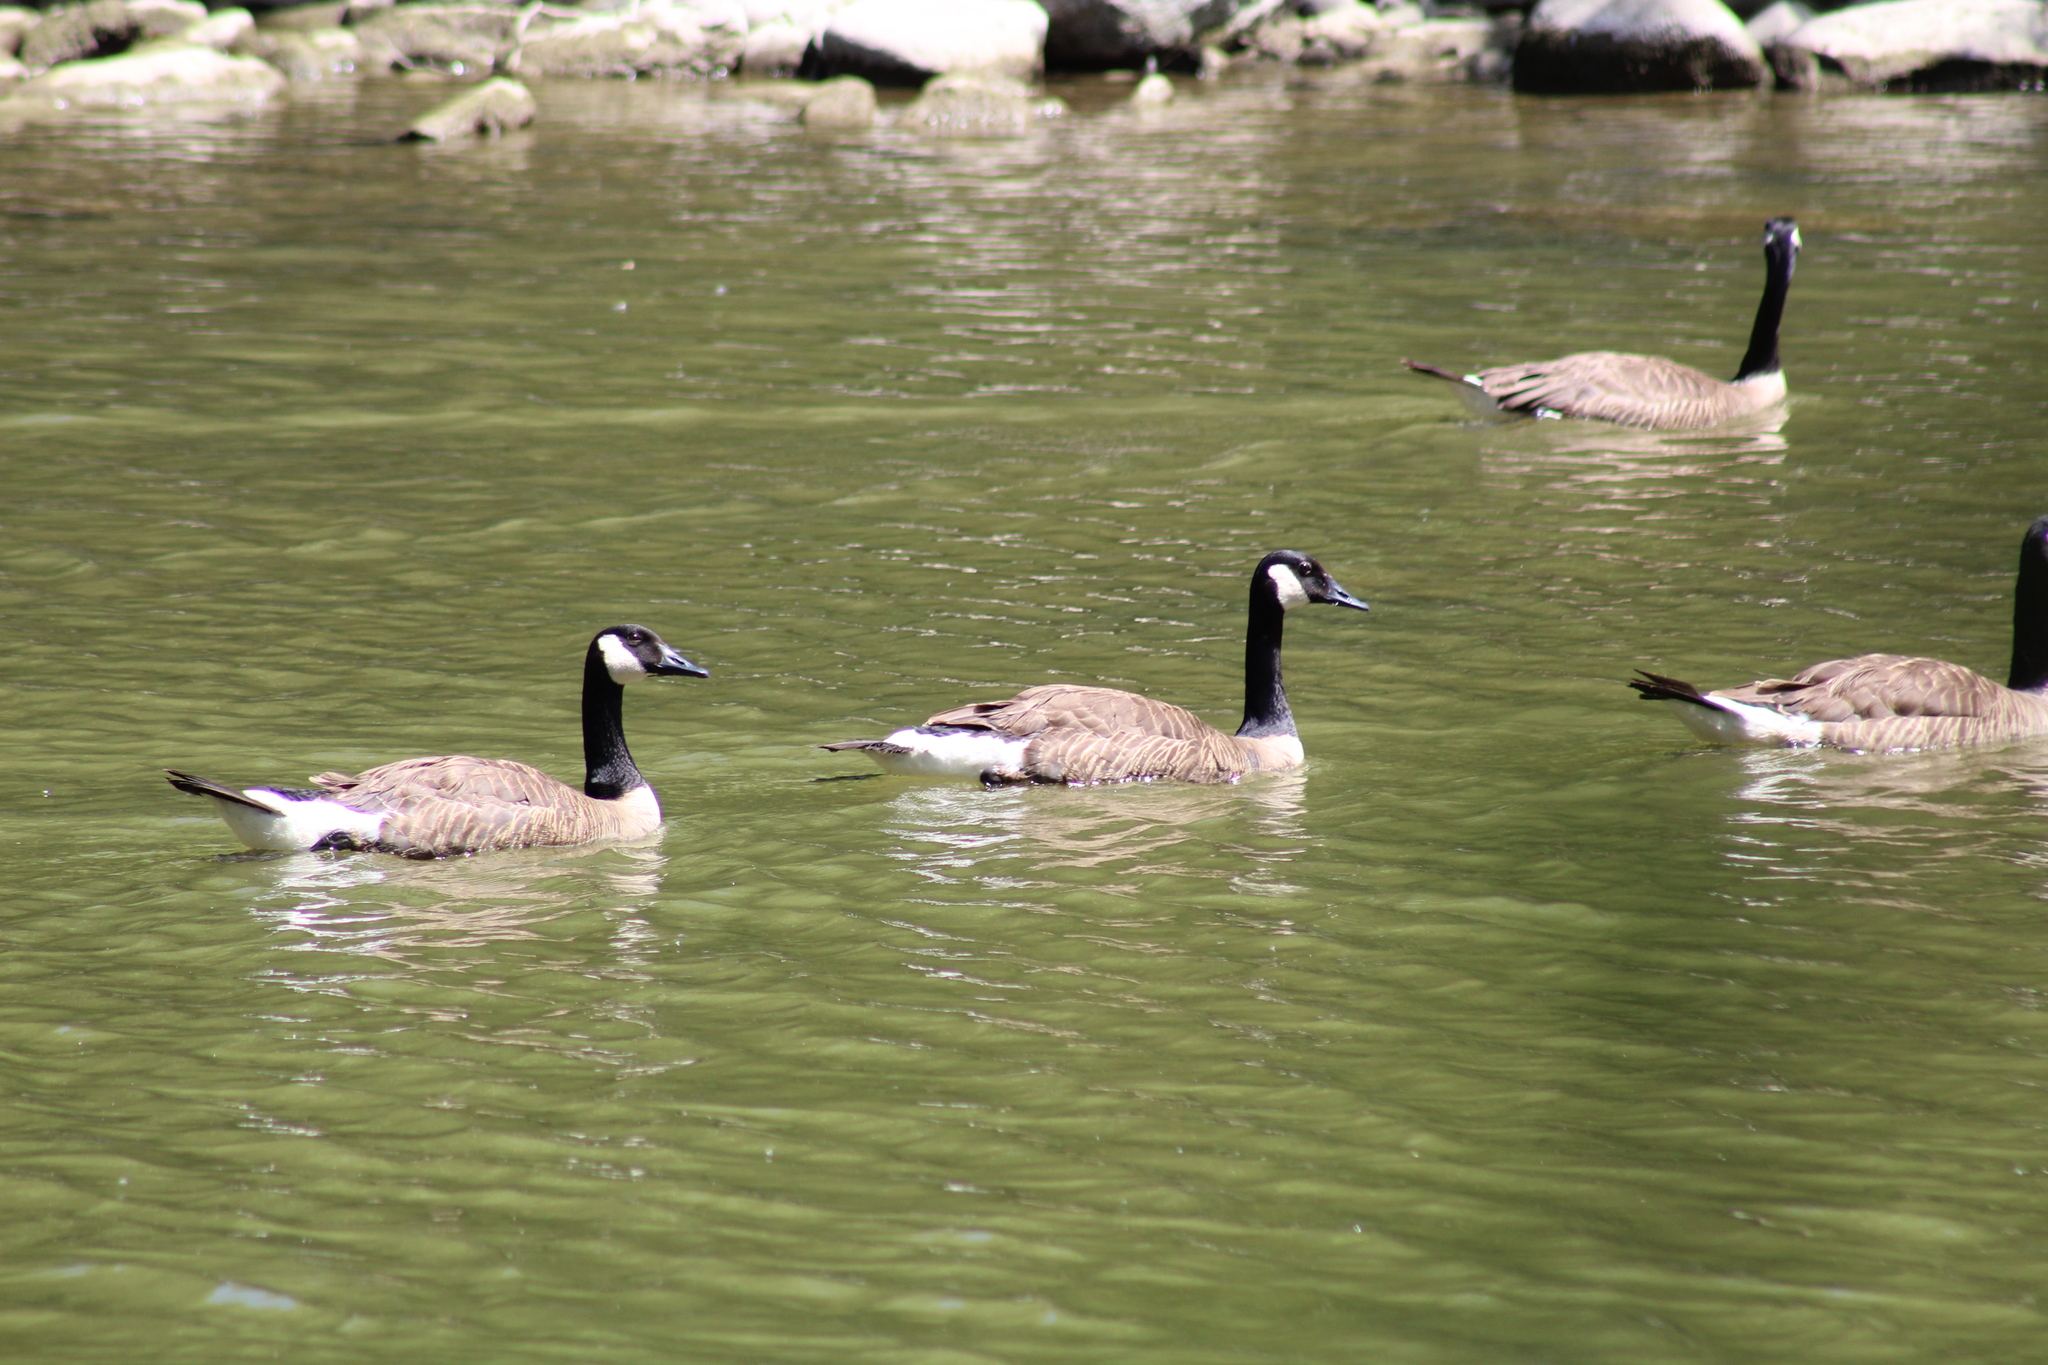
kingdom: Animalia
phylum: Chordata
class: Aves
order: Anseriformes
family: Anatidae
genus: Branta
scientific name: Branta canadensis
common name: Canada goose
